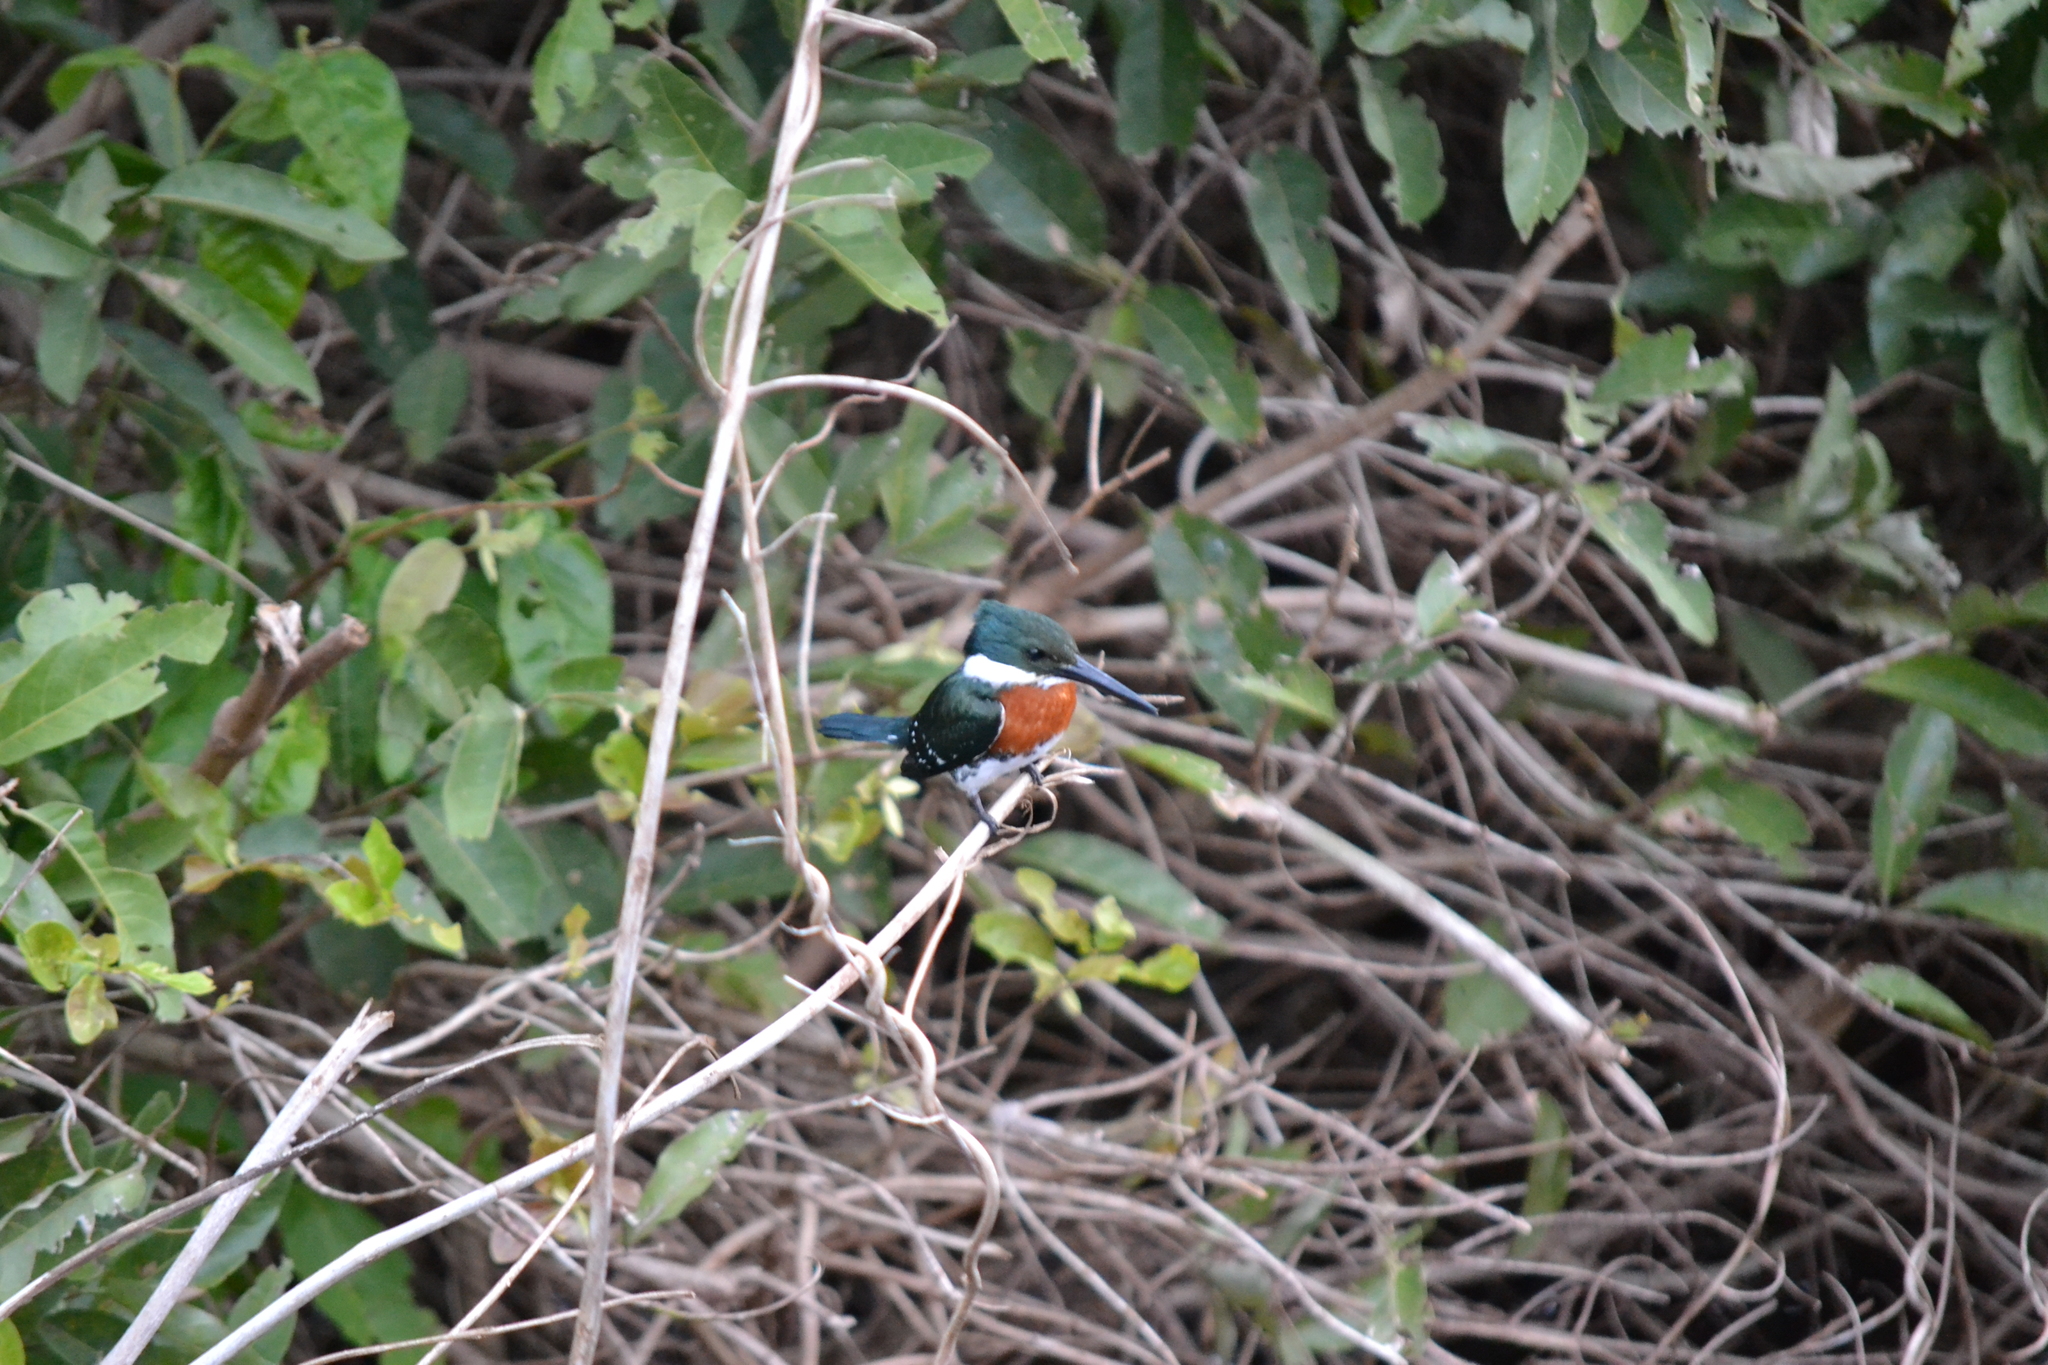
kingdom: Animalia
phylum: Chordata
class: Aves
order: Coraciiformes
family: Alcedinidae
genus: Chloroceryle
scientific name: Chloroceryle americana
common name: Green kingfisher
